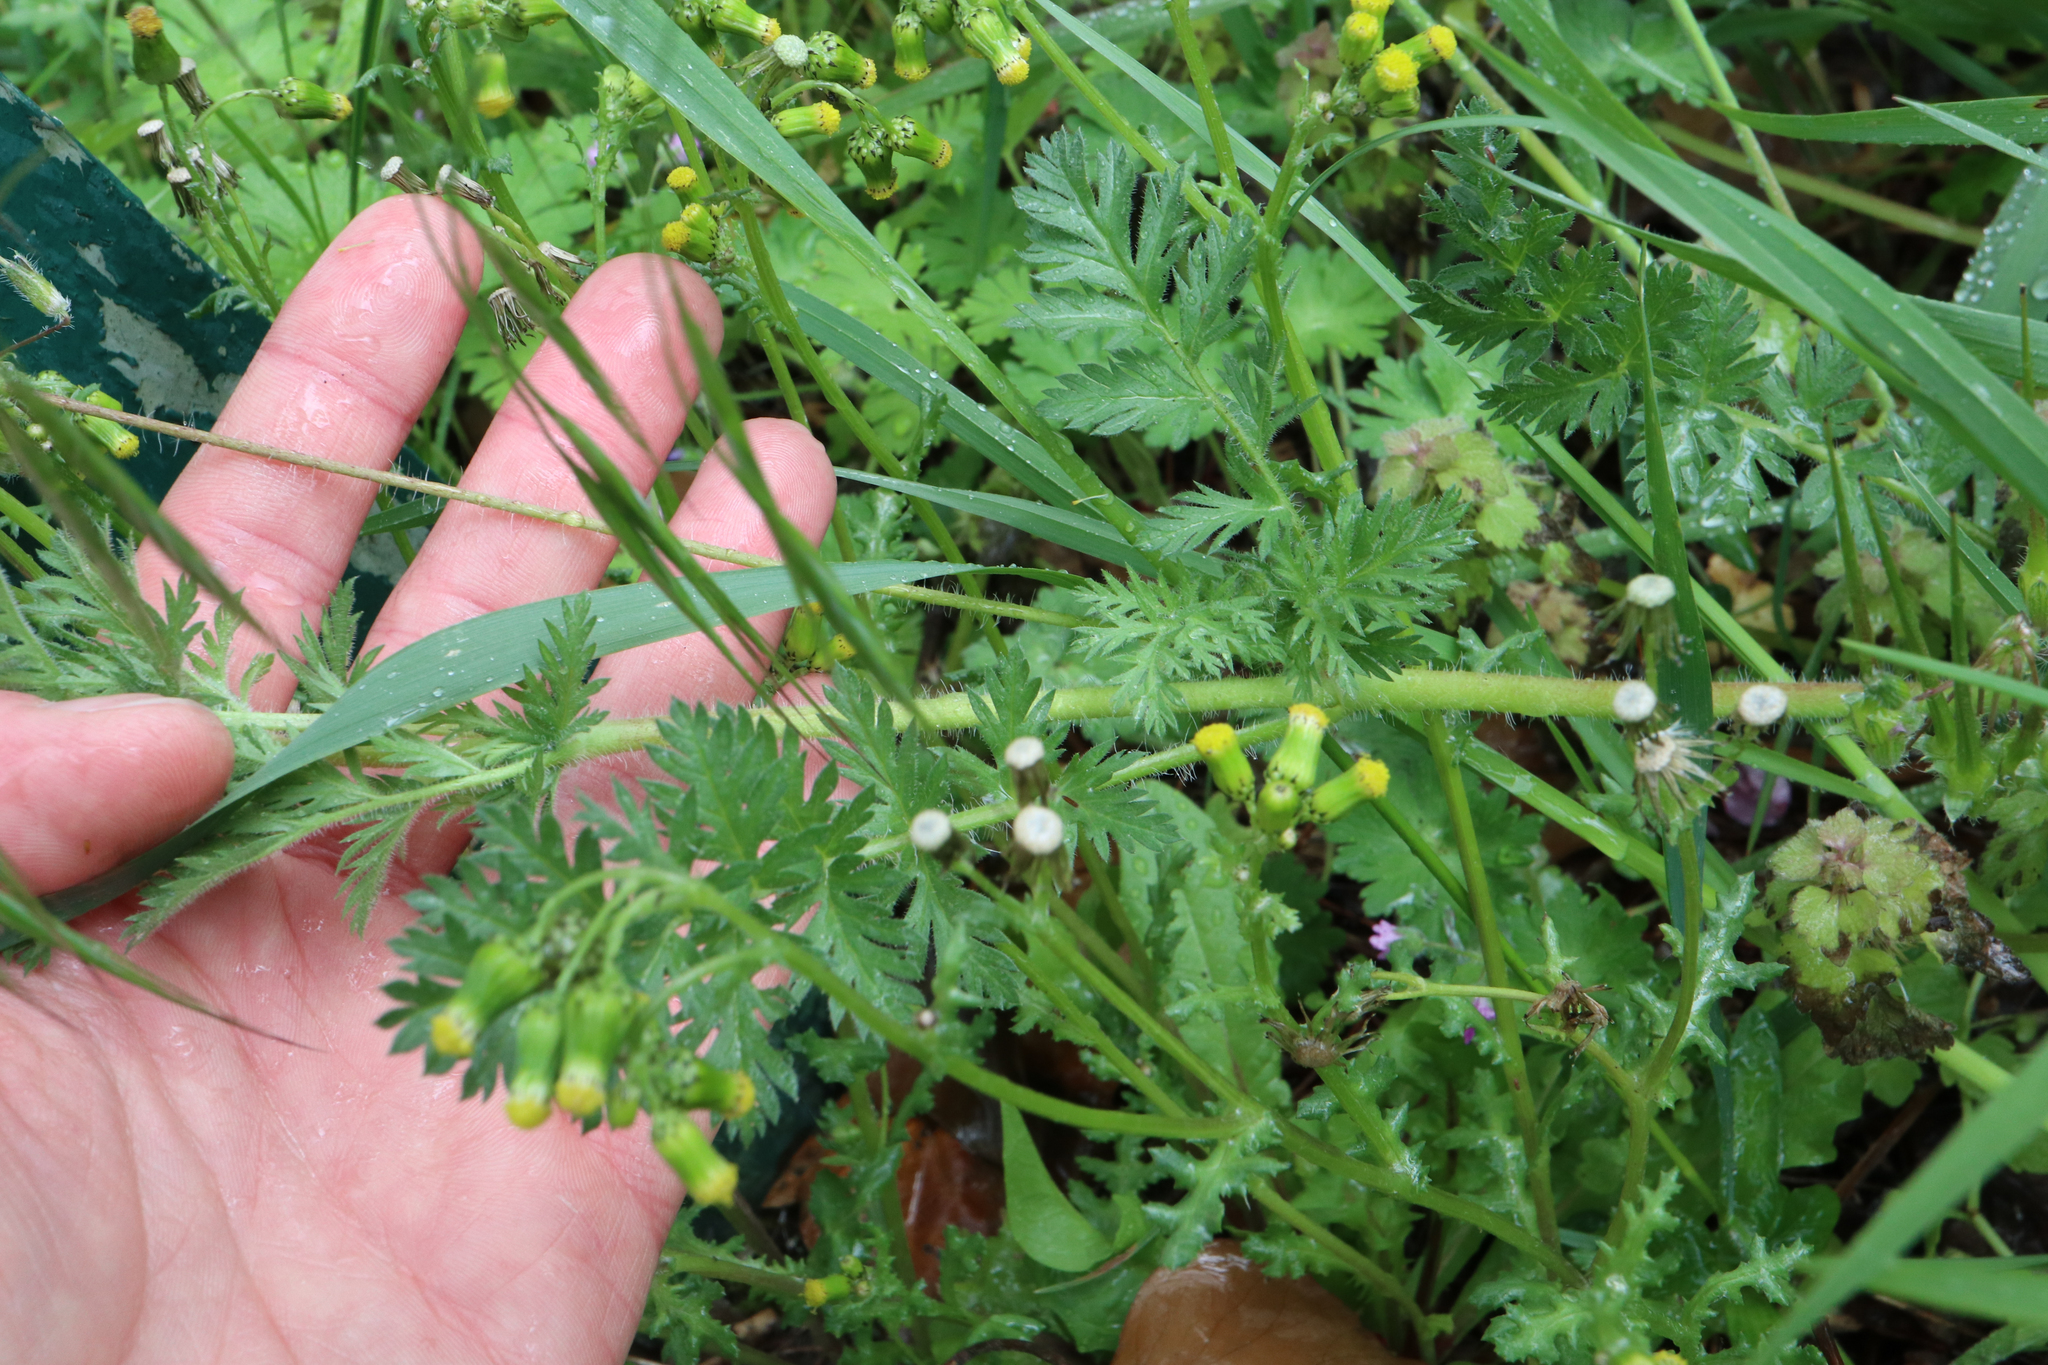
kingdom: Plantae
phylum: Tracheophyta
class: Magnoliopsida
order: Geraniales
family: Geraniaceae
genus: Erodium
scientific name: Erodium cicutarium
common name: Common stork's-bill
